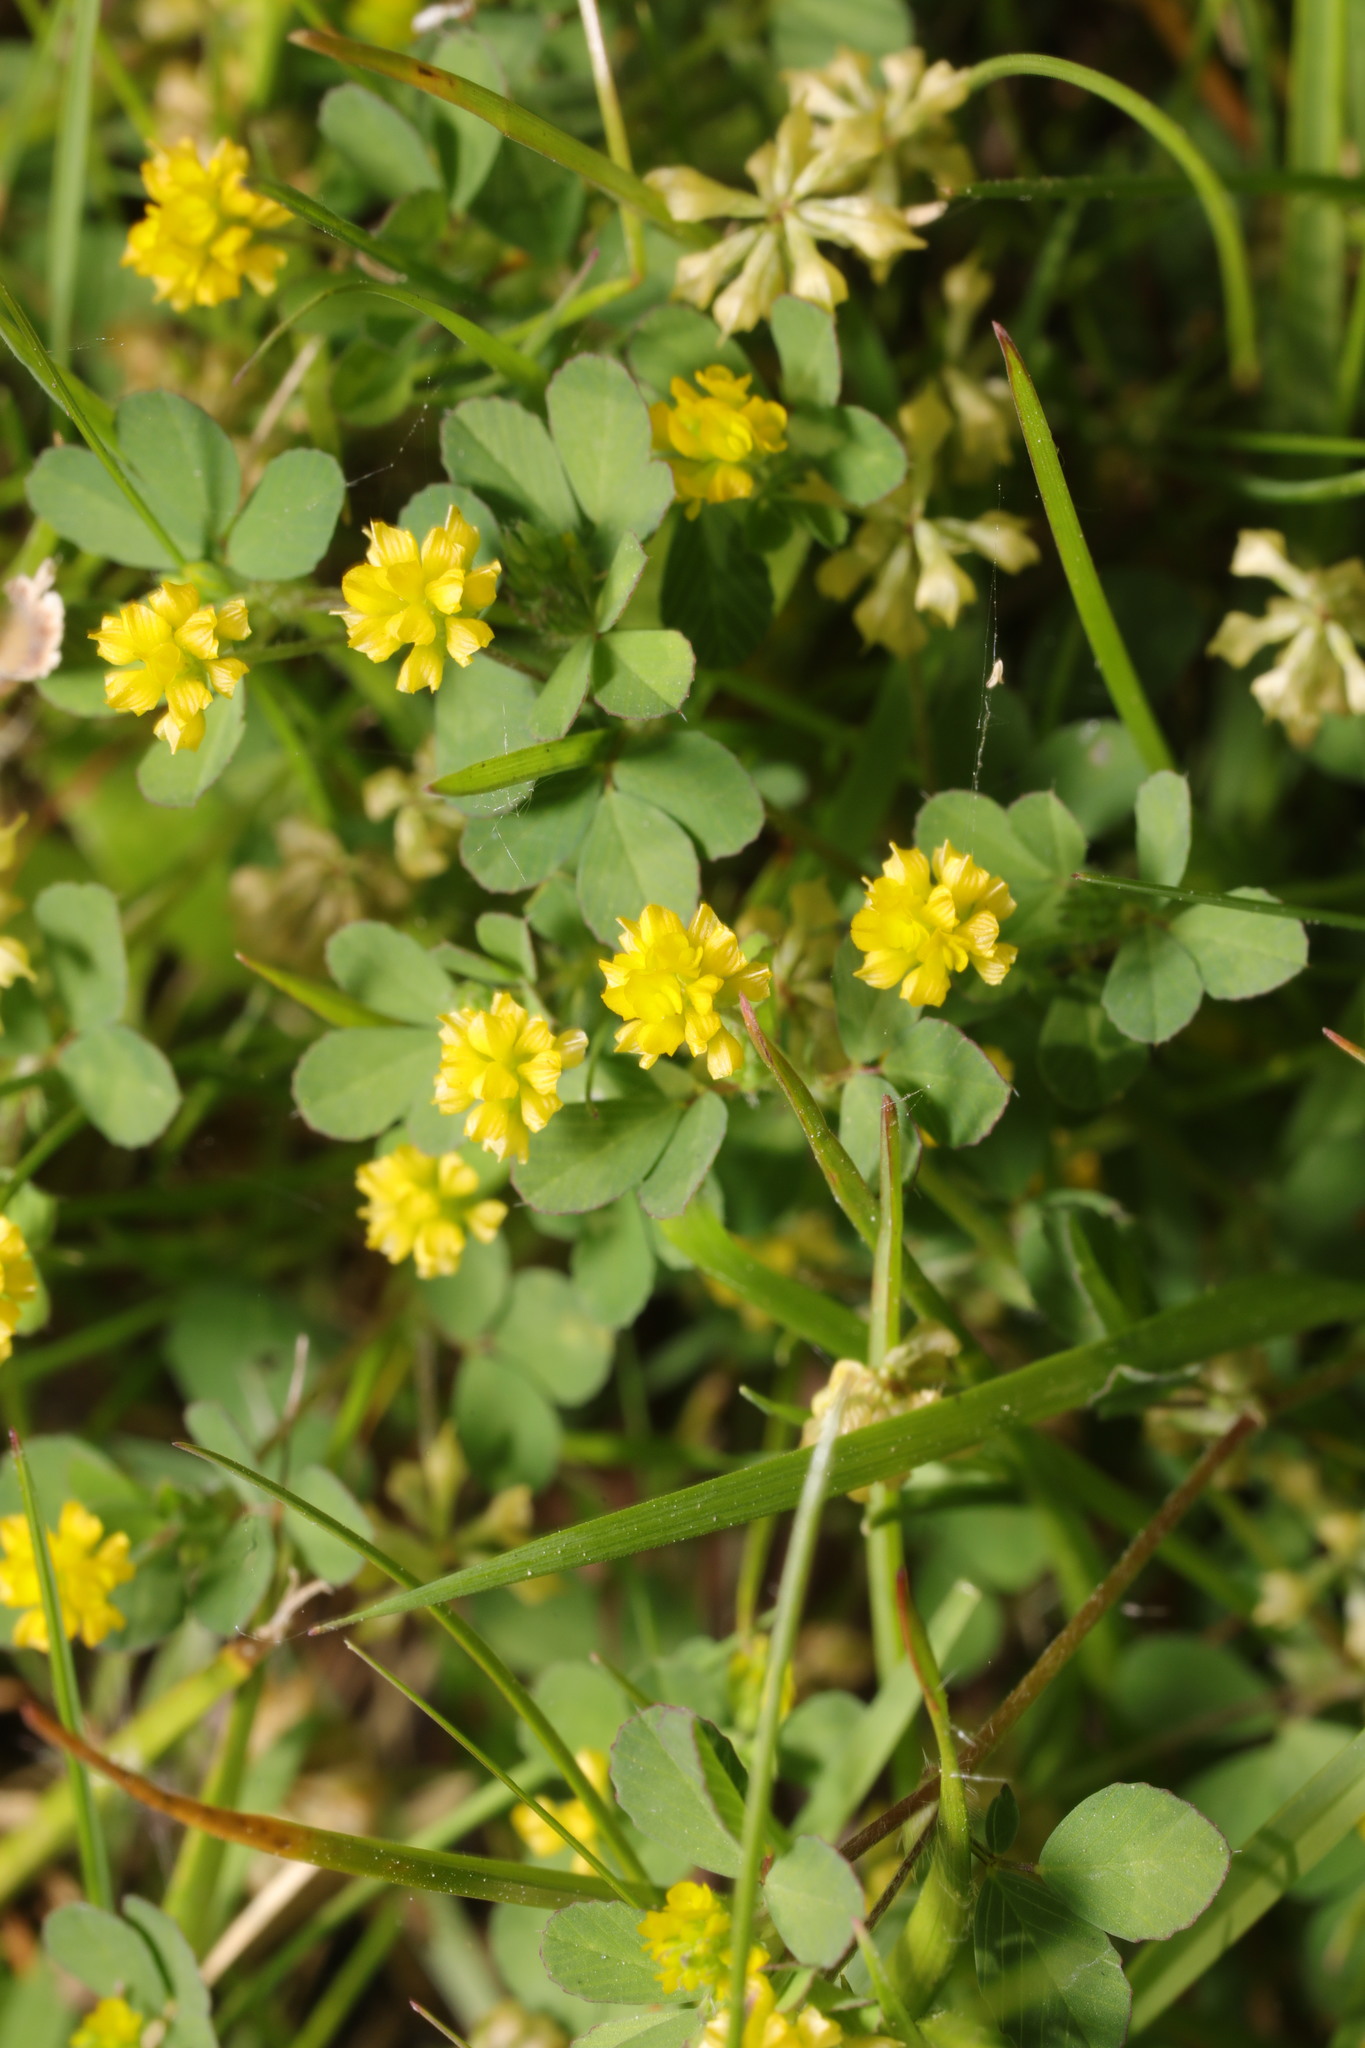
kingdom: Plantae
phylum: Tracheophyta
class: Magnoliopsida
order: Fabales
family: Fabaceae
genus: Trifolium
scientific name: Trifolium dubium
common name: Suckling clover
